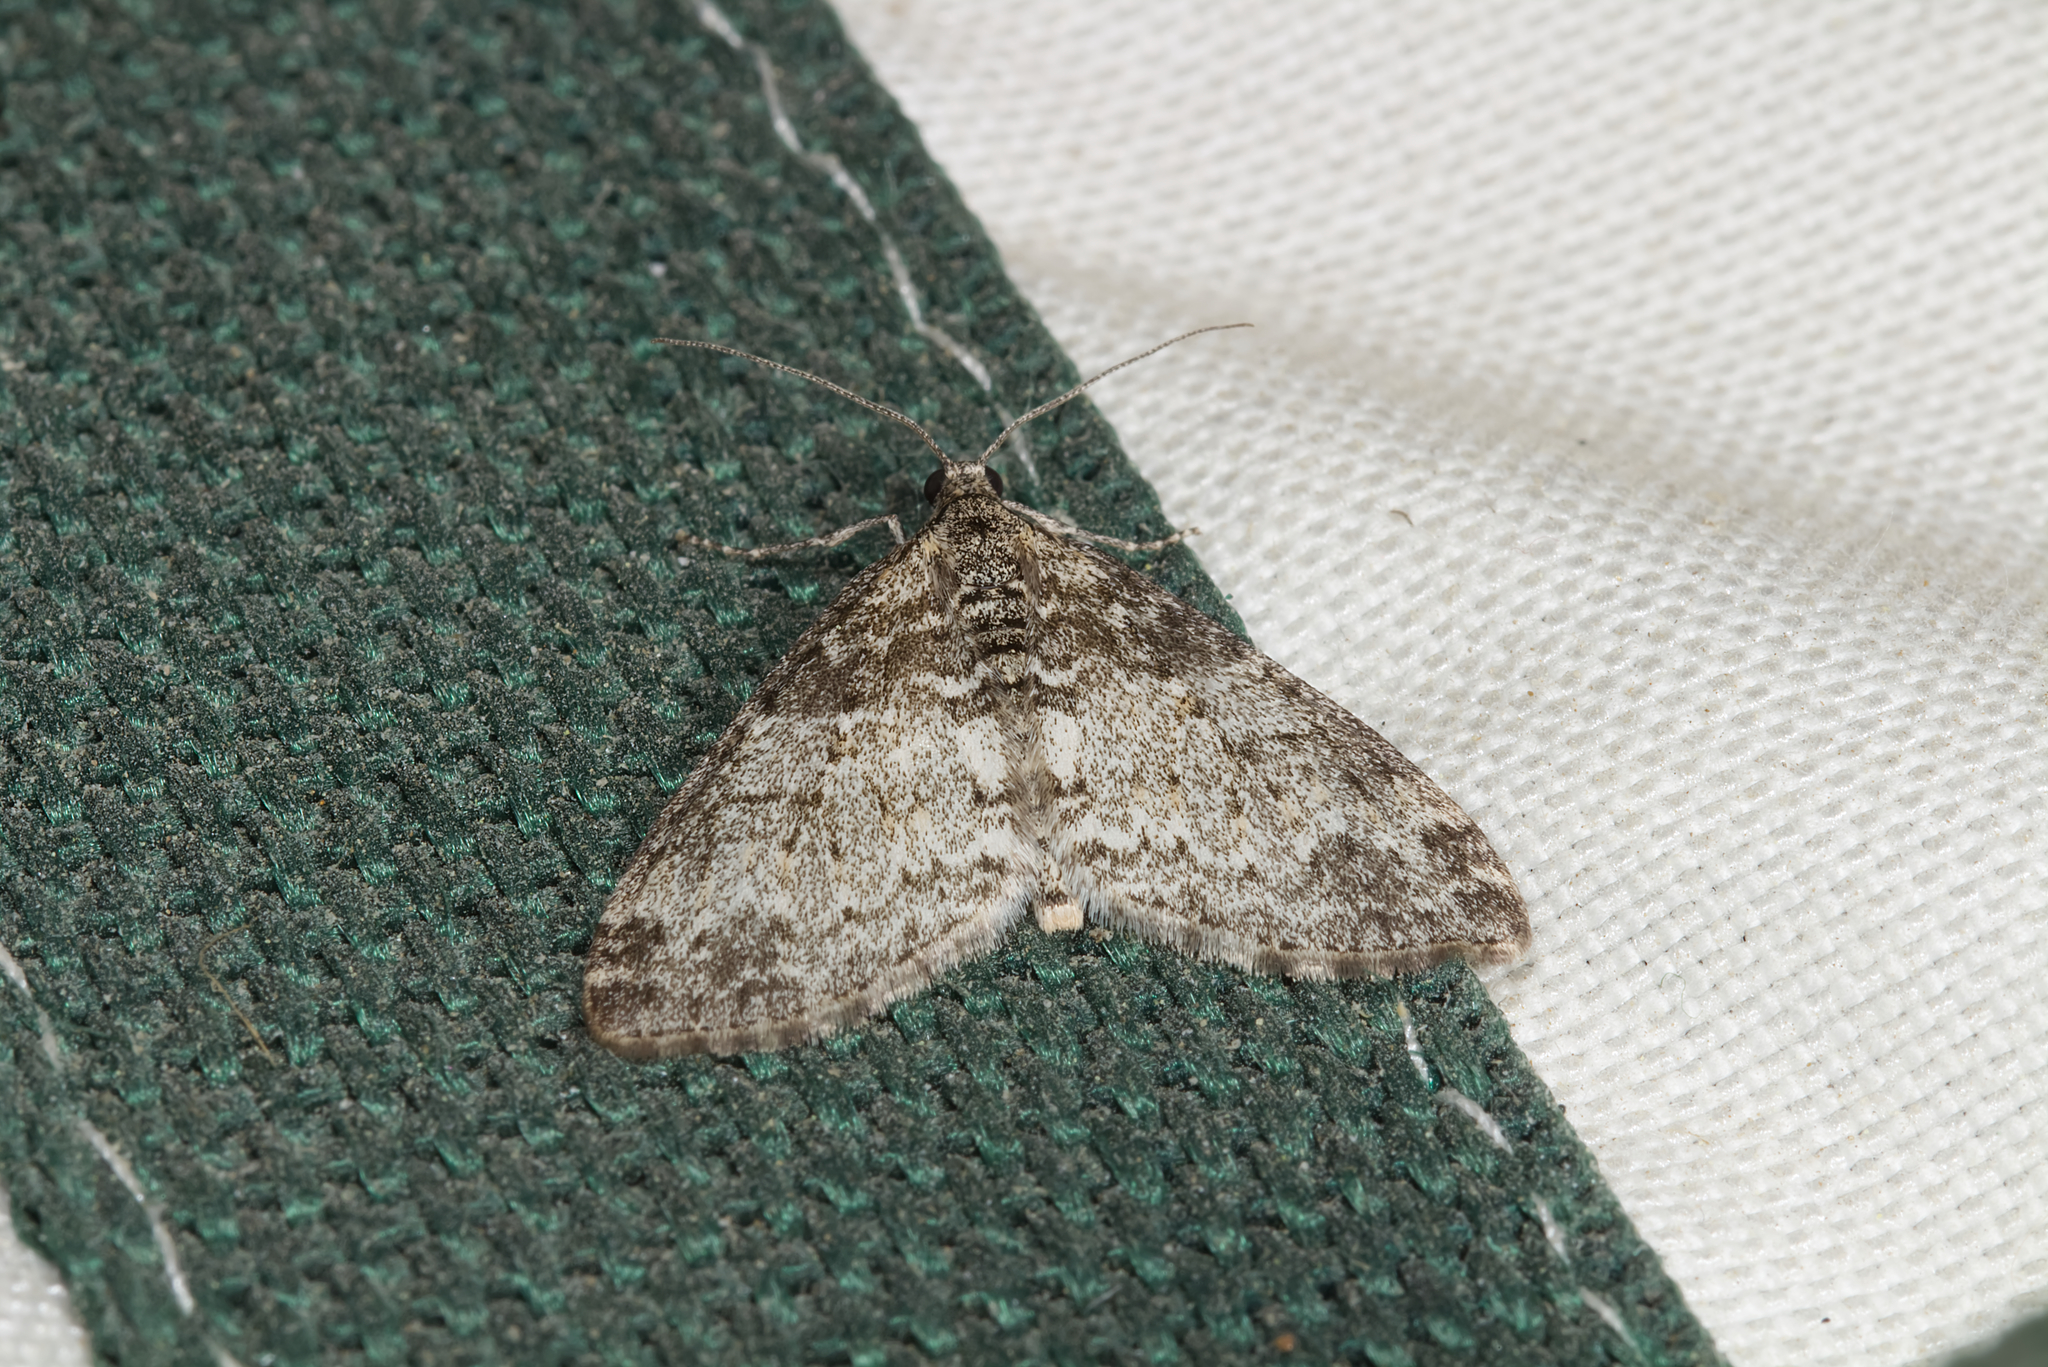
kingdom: Animalia
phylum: Arthropoda
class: Insecta
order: Lepidoptera
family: Geometridae
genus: Lobophora
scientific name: Lobophora halterata
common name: Seraphim
